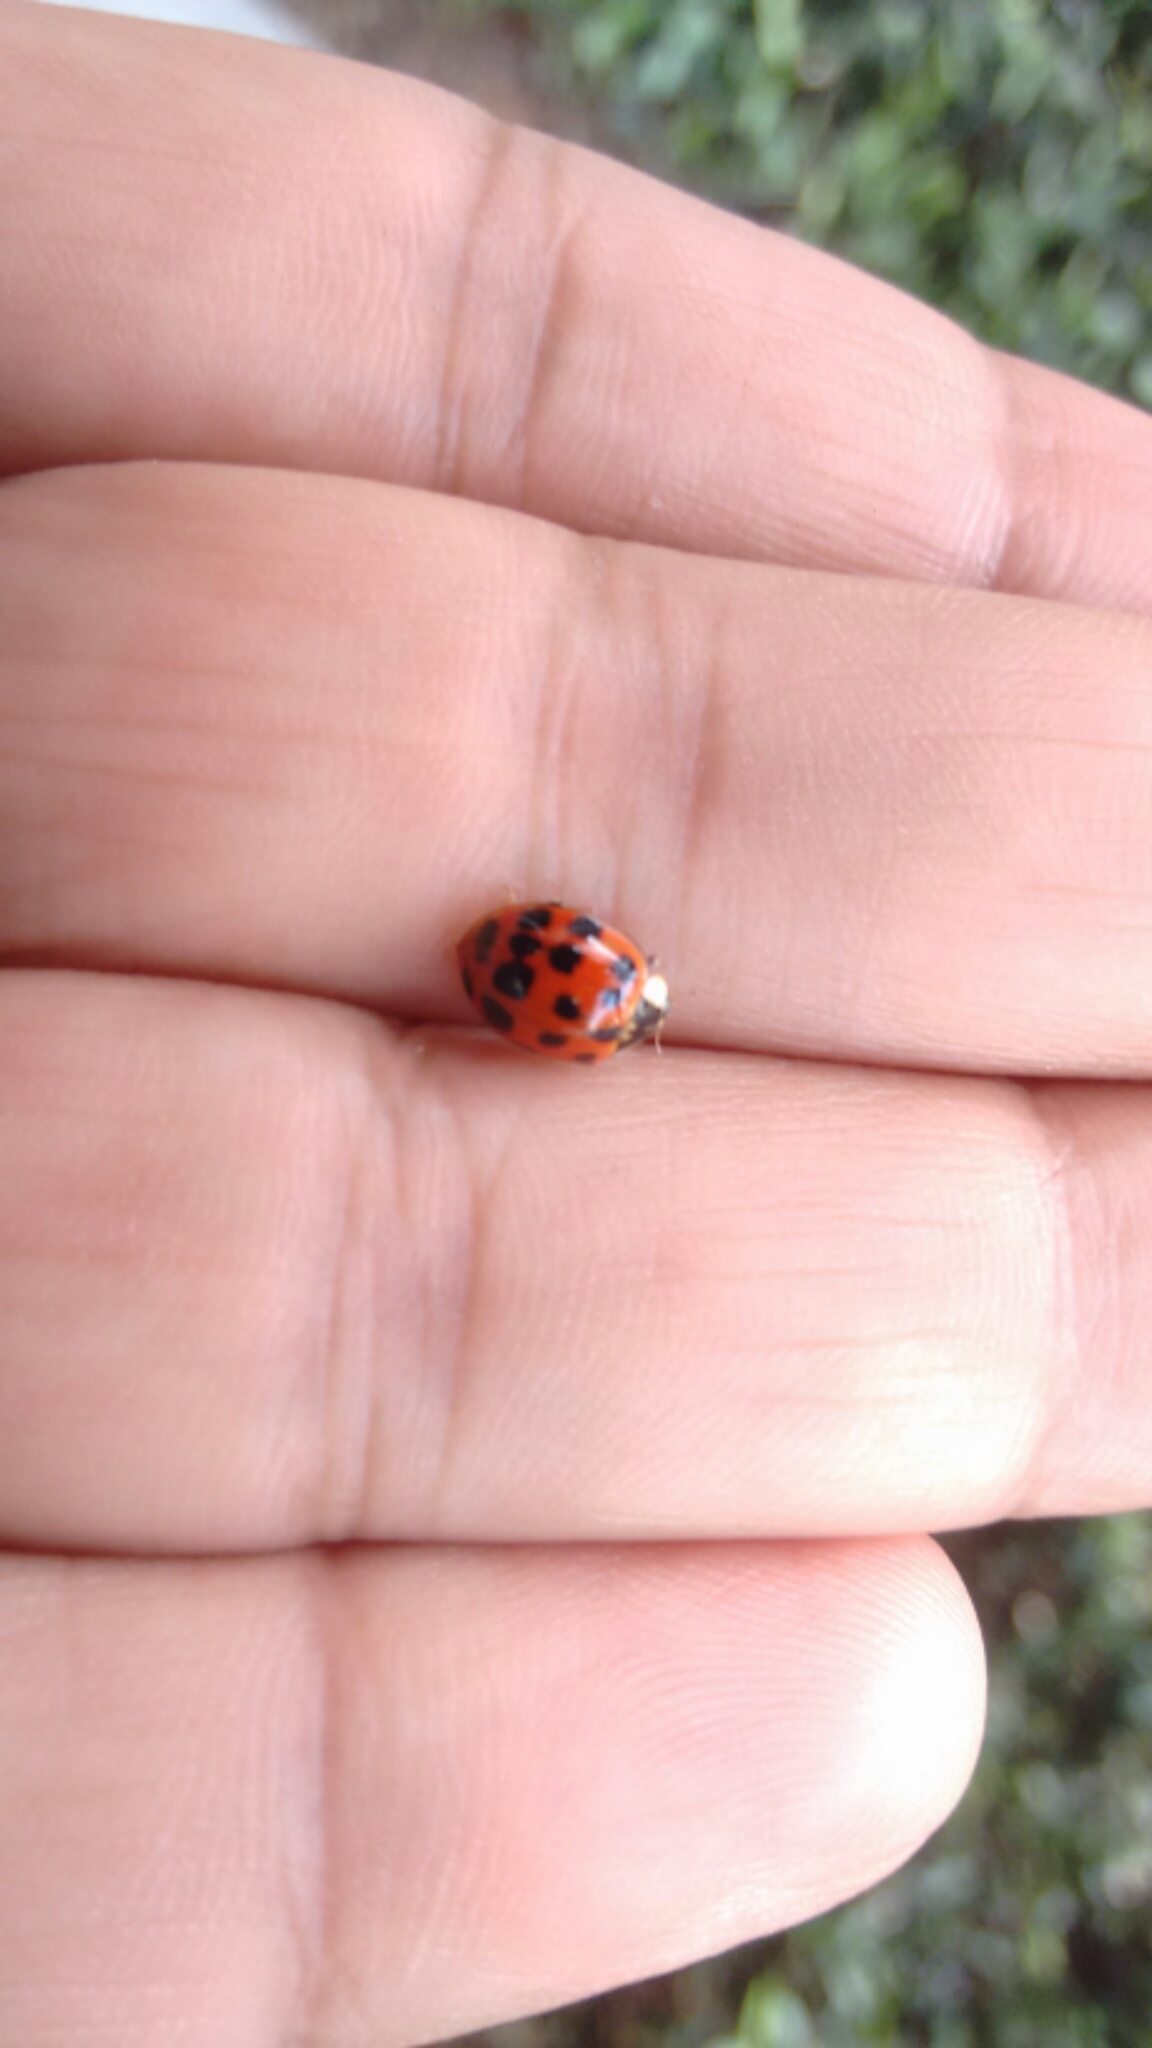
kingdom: Animalia
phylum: Arthropoda
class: Insecta
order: Coleoptera
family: Coccinellidae
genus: Harmonia
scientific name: Harmonia axyridis
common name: Harlequin ladybird
